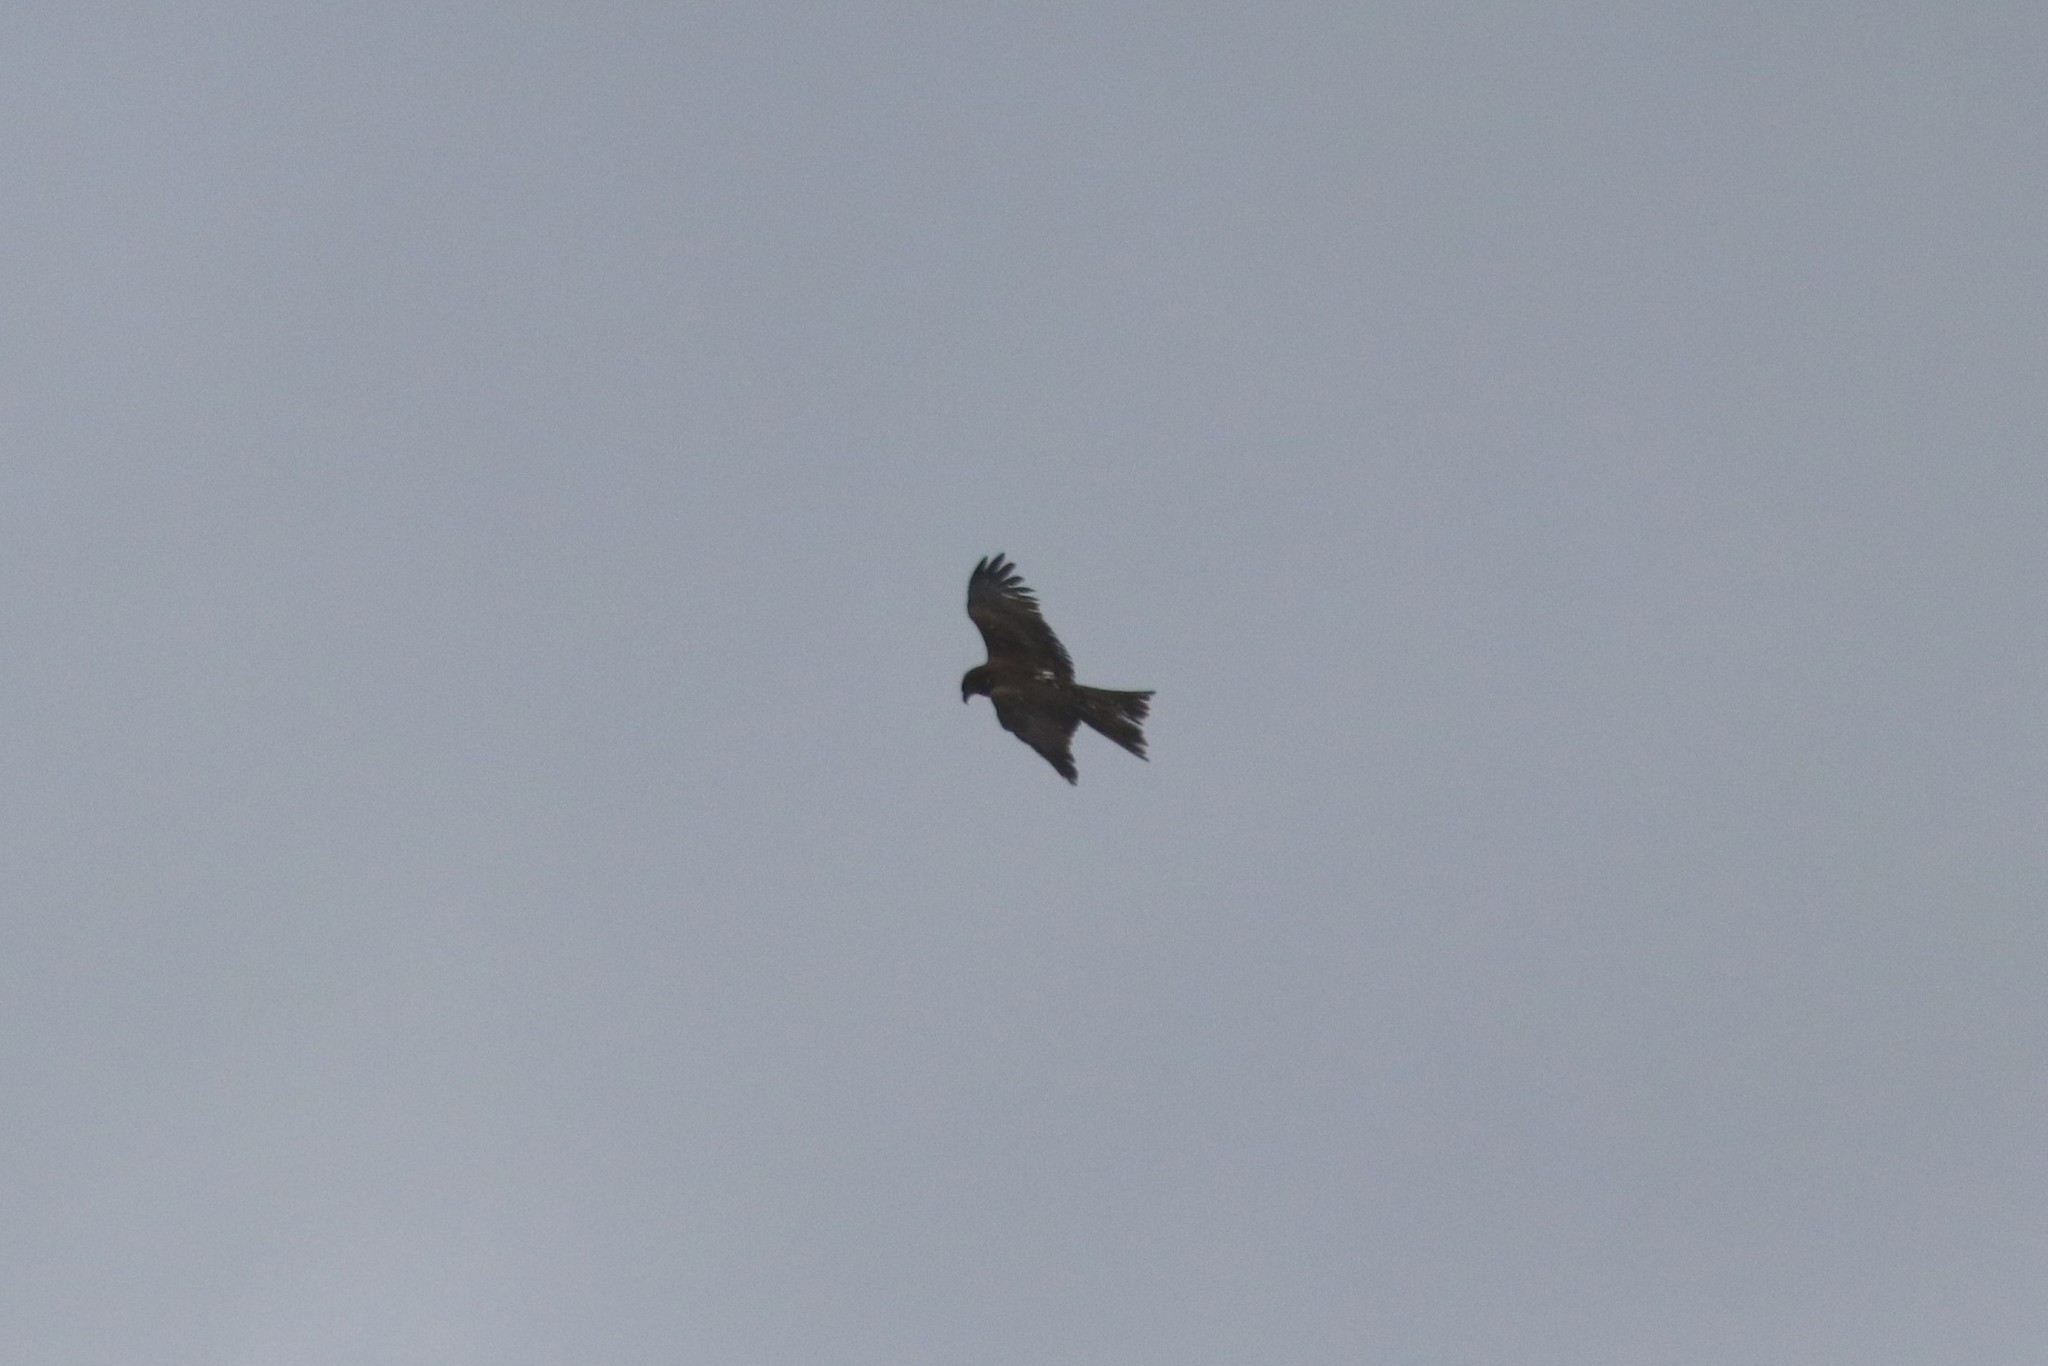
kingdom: Animalia
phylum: Chordata
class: Aves
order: Accipitriformes
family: Accipitridae
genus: Milvus
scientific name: Milvus migrans
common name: Black kite
